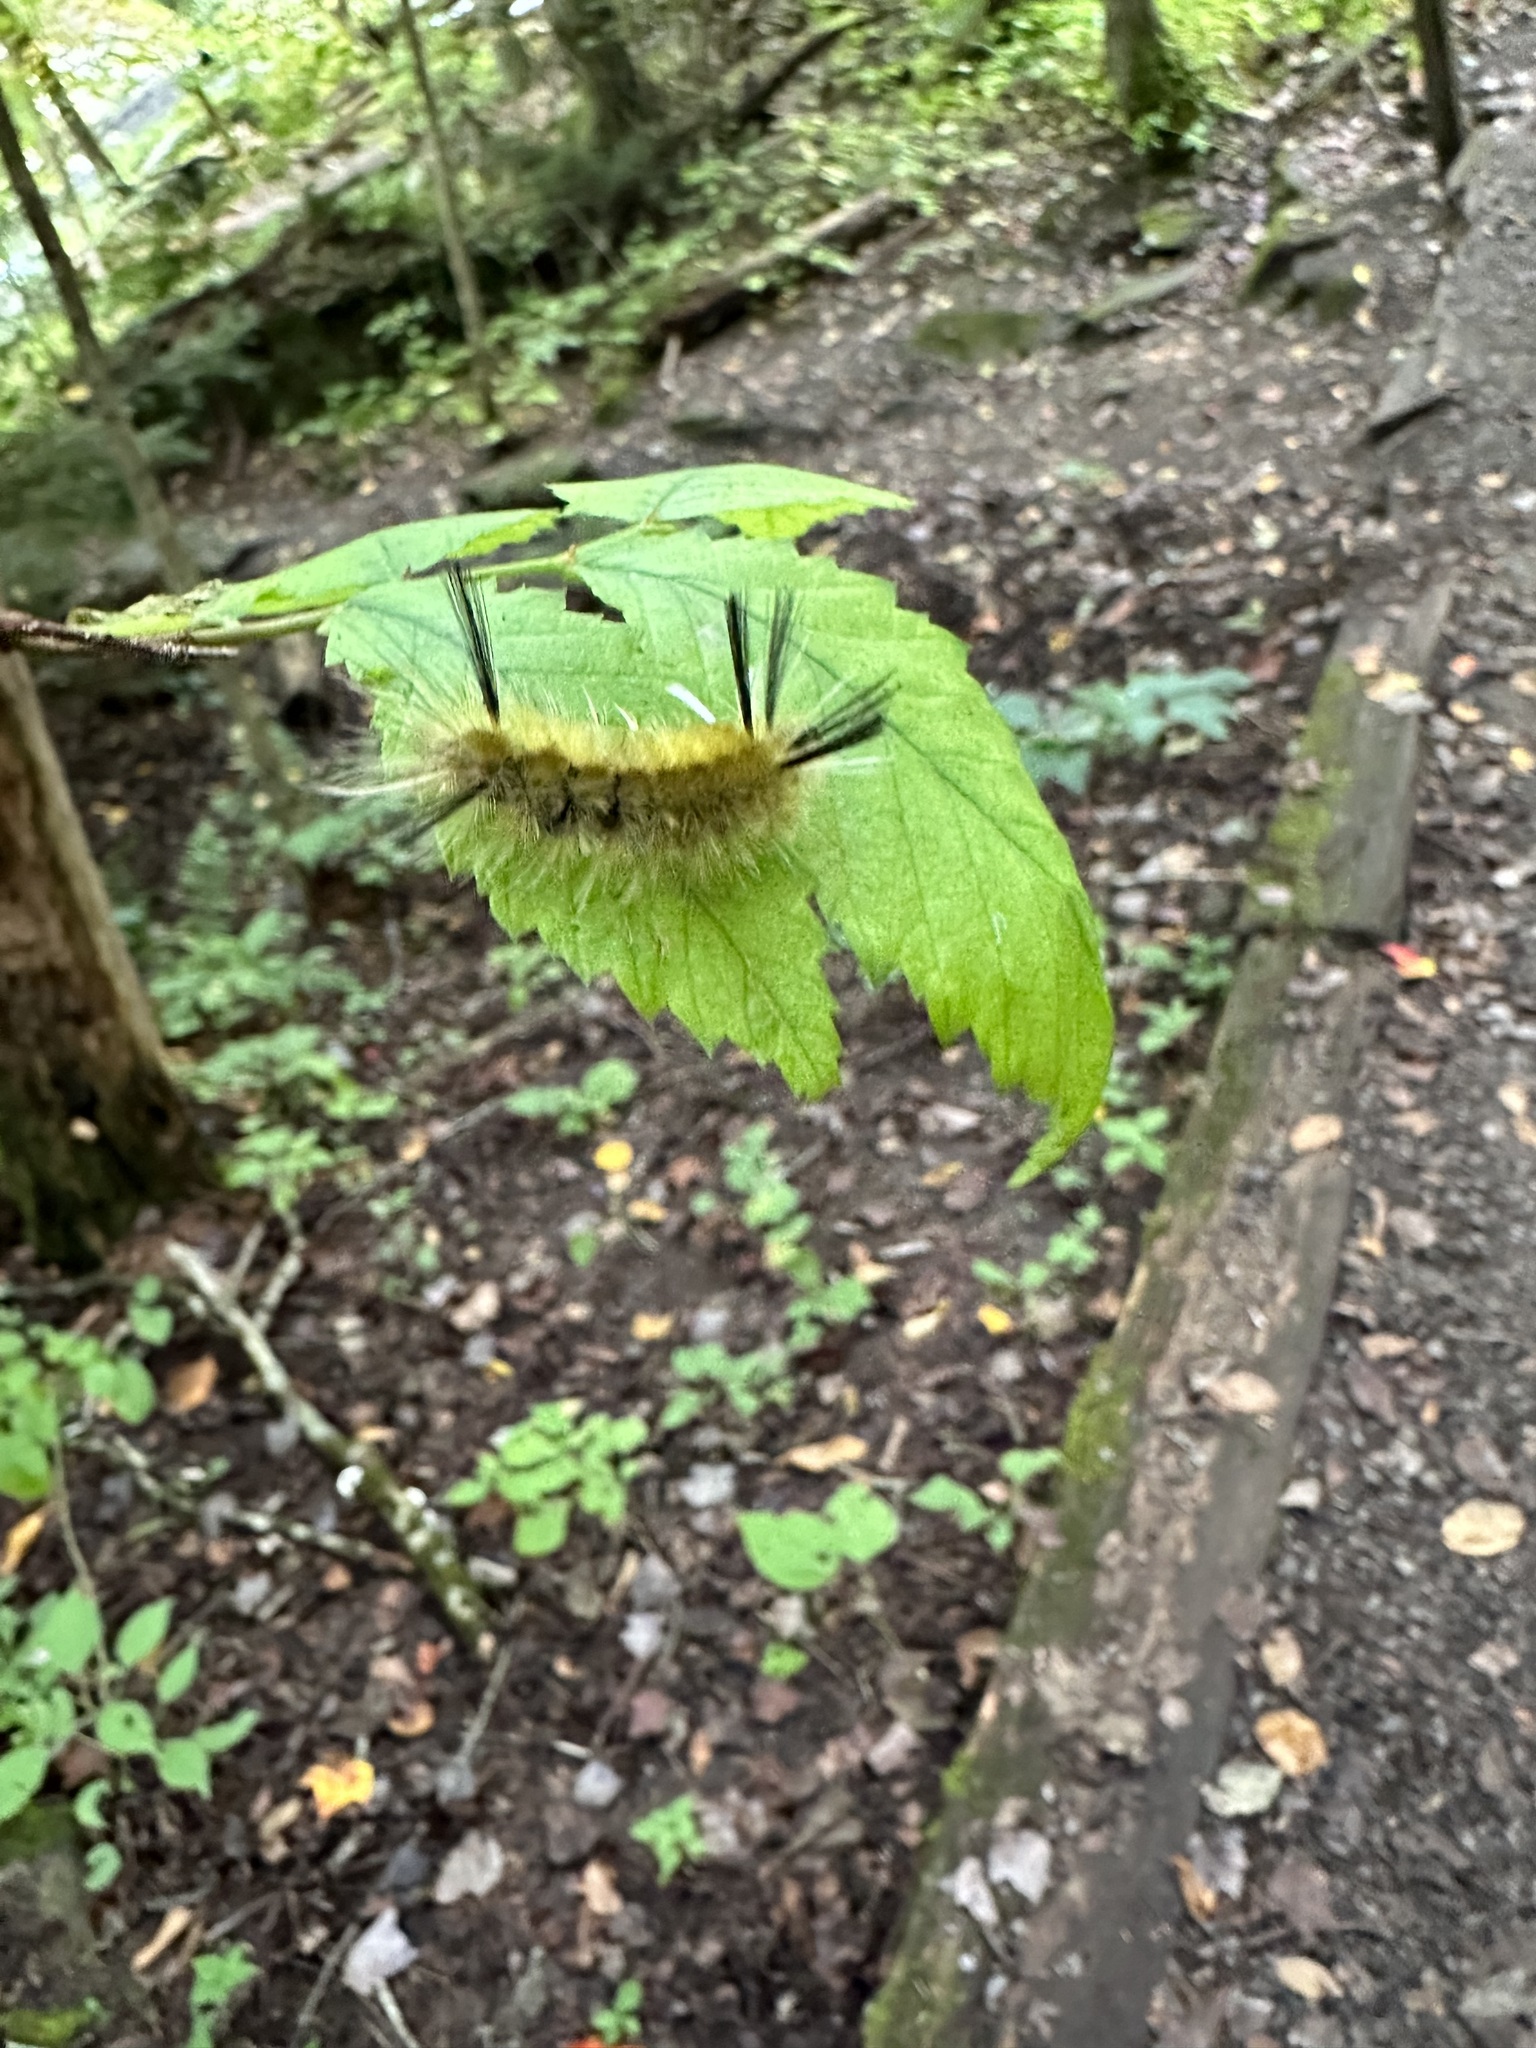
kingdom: Animalia
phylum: Arthropoda
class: Insecta
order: Lepidoptera
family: Erebidae
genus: Halysidota
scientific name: Halysidota tessellaris
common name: Banded tussock moth
